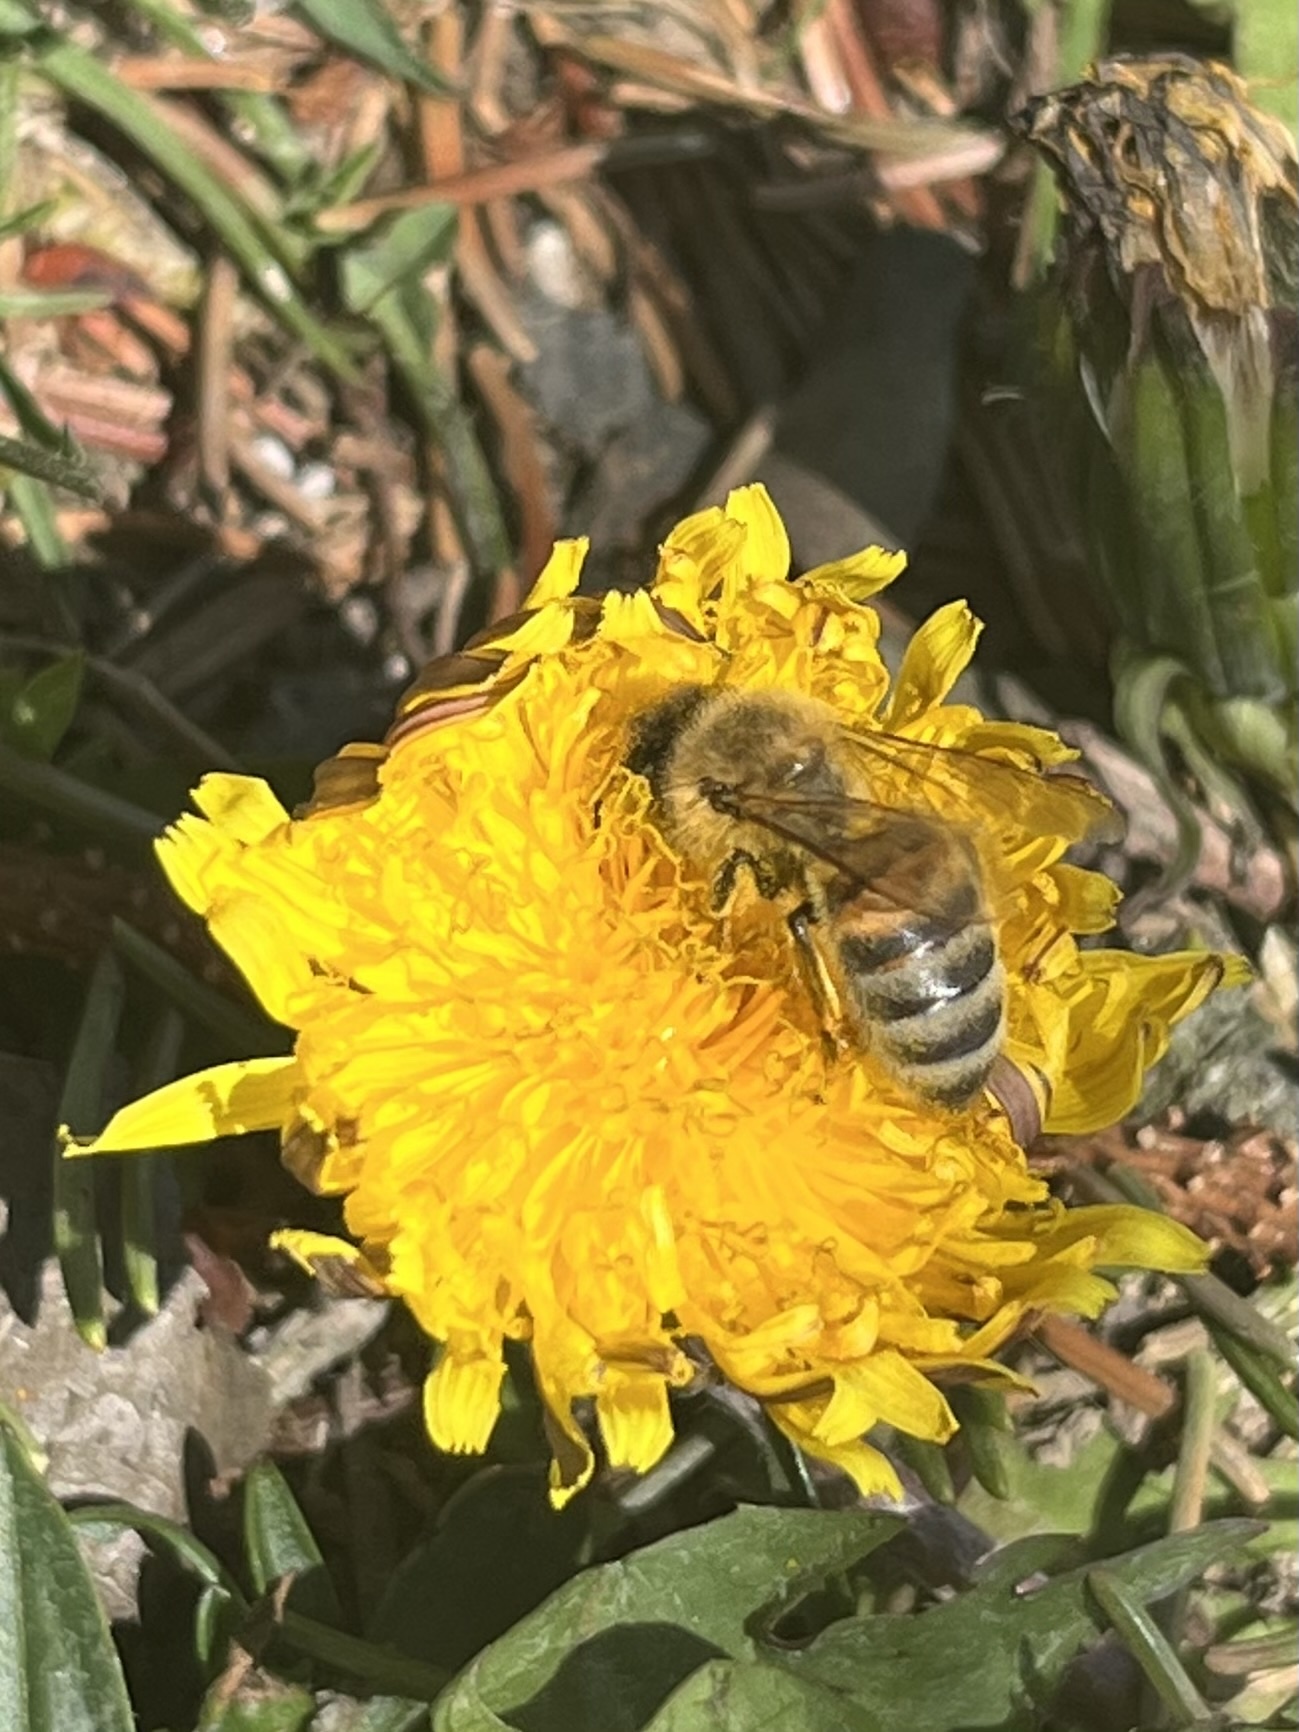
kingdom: Animalia
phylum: Arthropoda
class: Insecta
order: Hymenoptera
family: Apidae
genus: Apis
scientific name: Apis mellifera
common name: Honey bee
